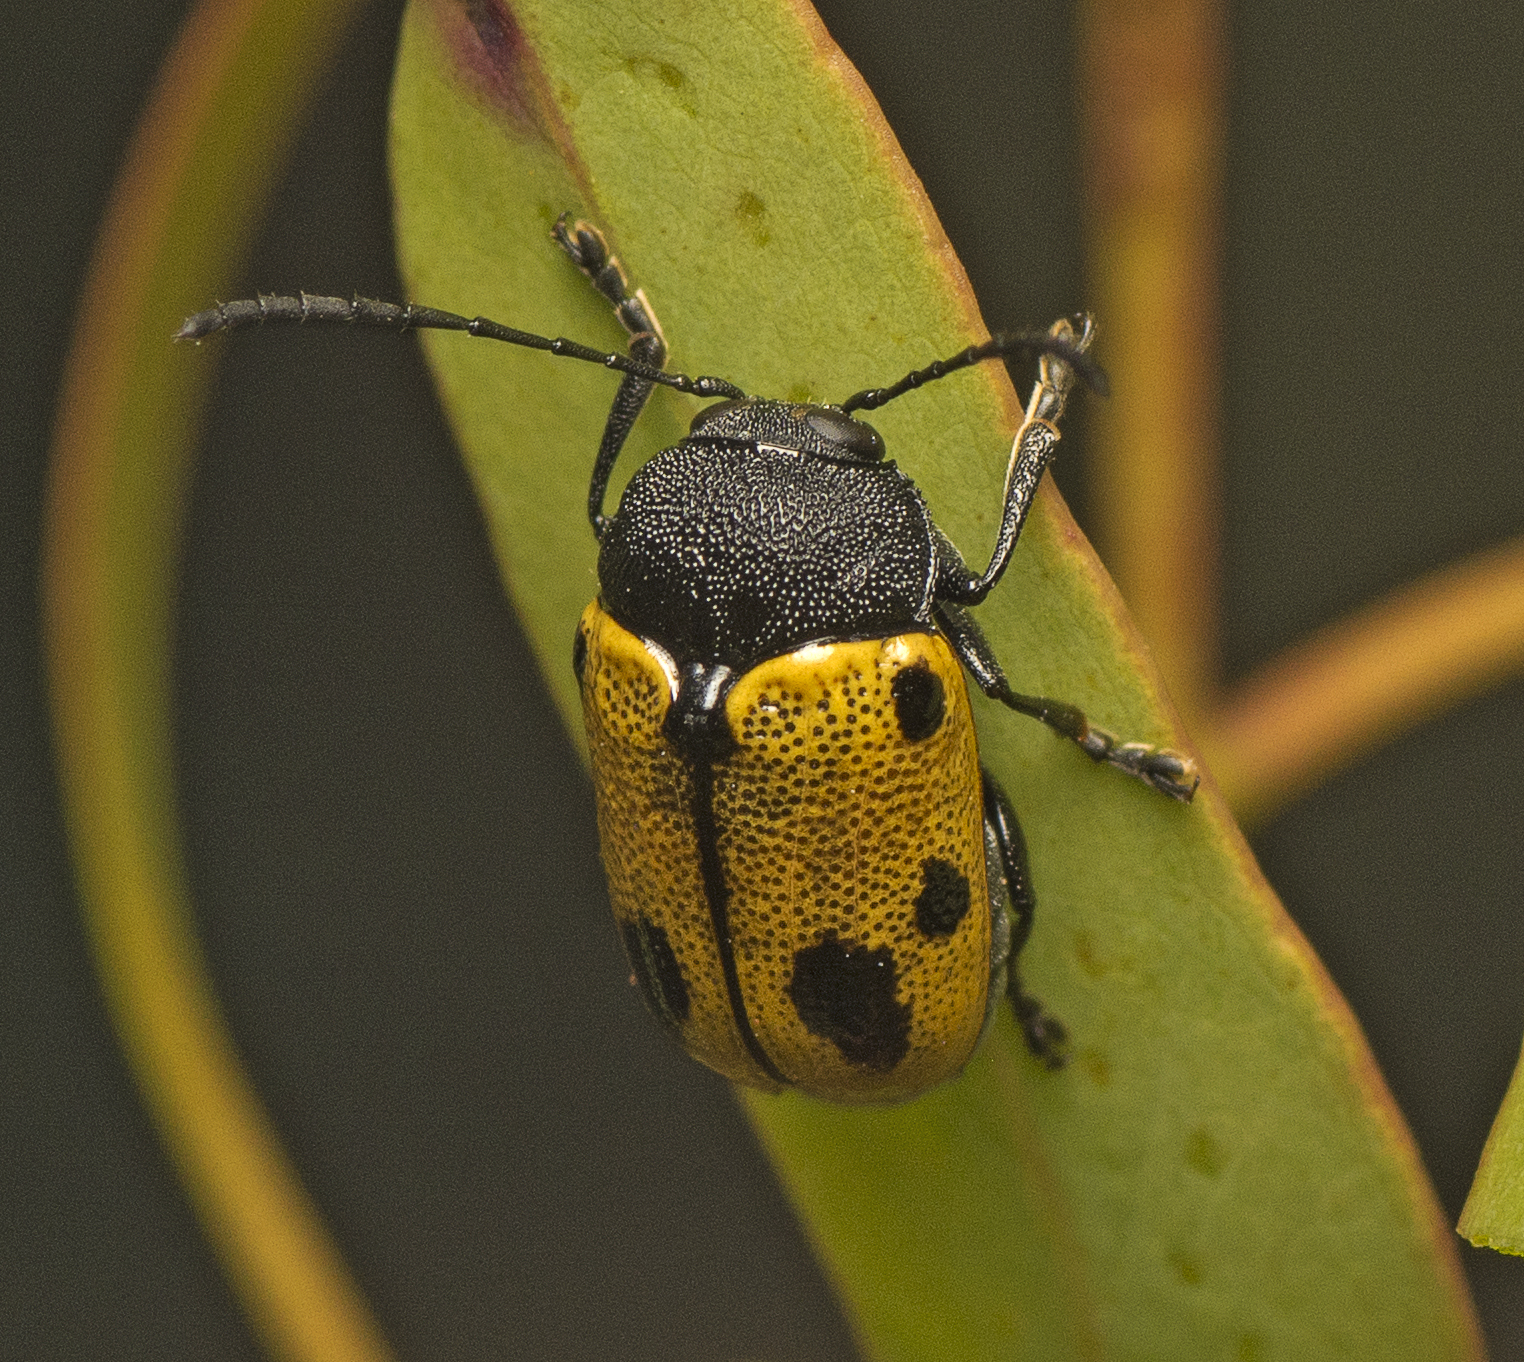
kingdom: Animalia
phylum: Arthropoda
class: Insecta
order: Coleoptera
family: Chrysomelidae
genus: Cadmus
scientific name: Cadmus
